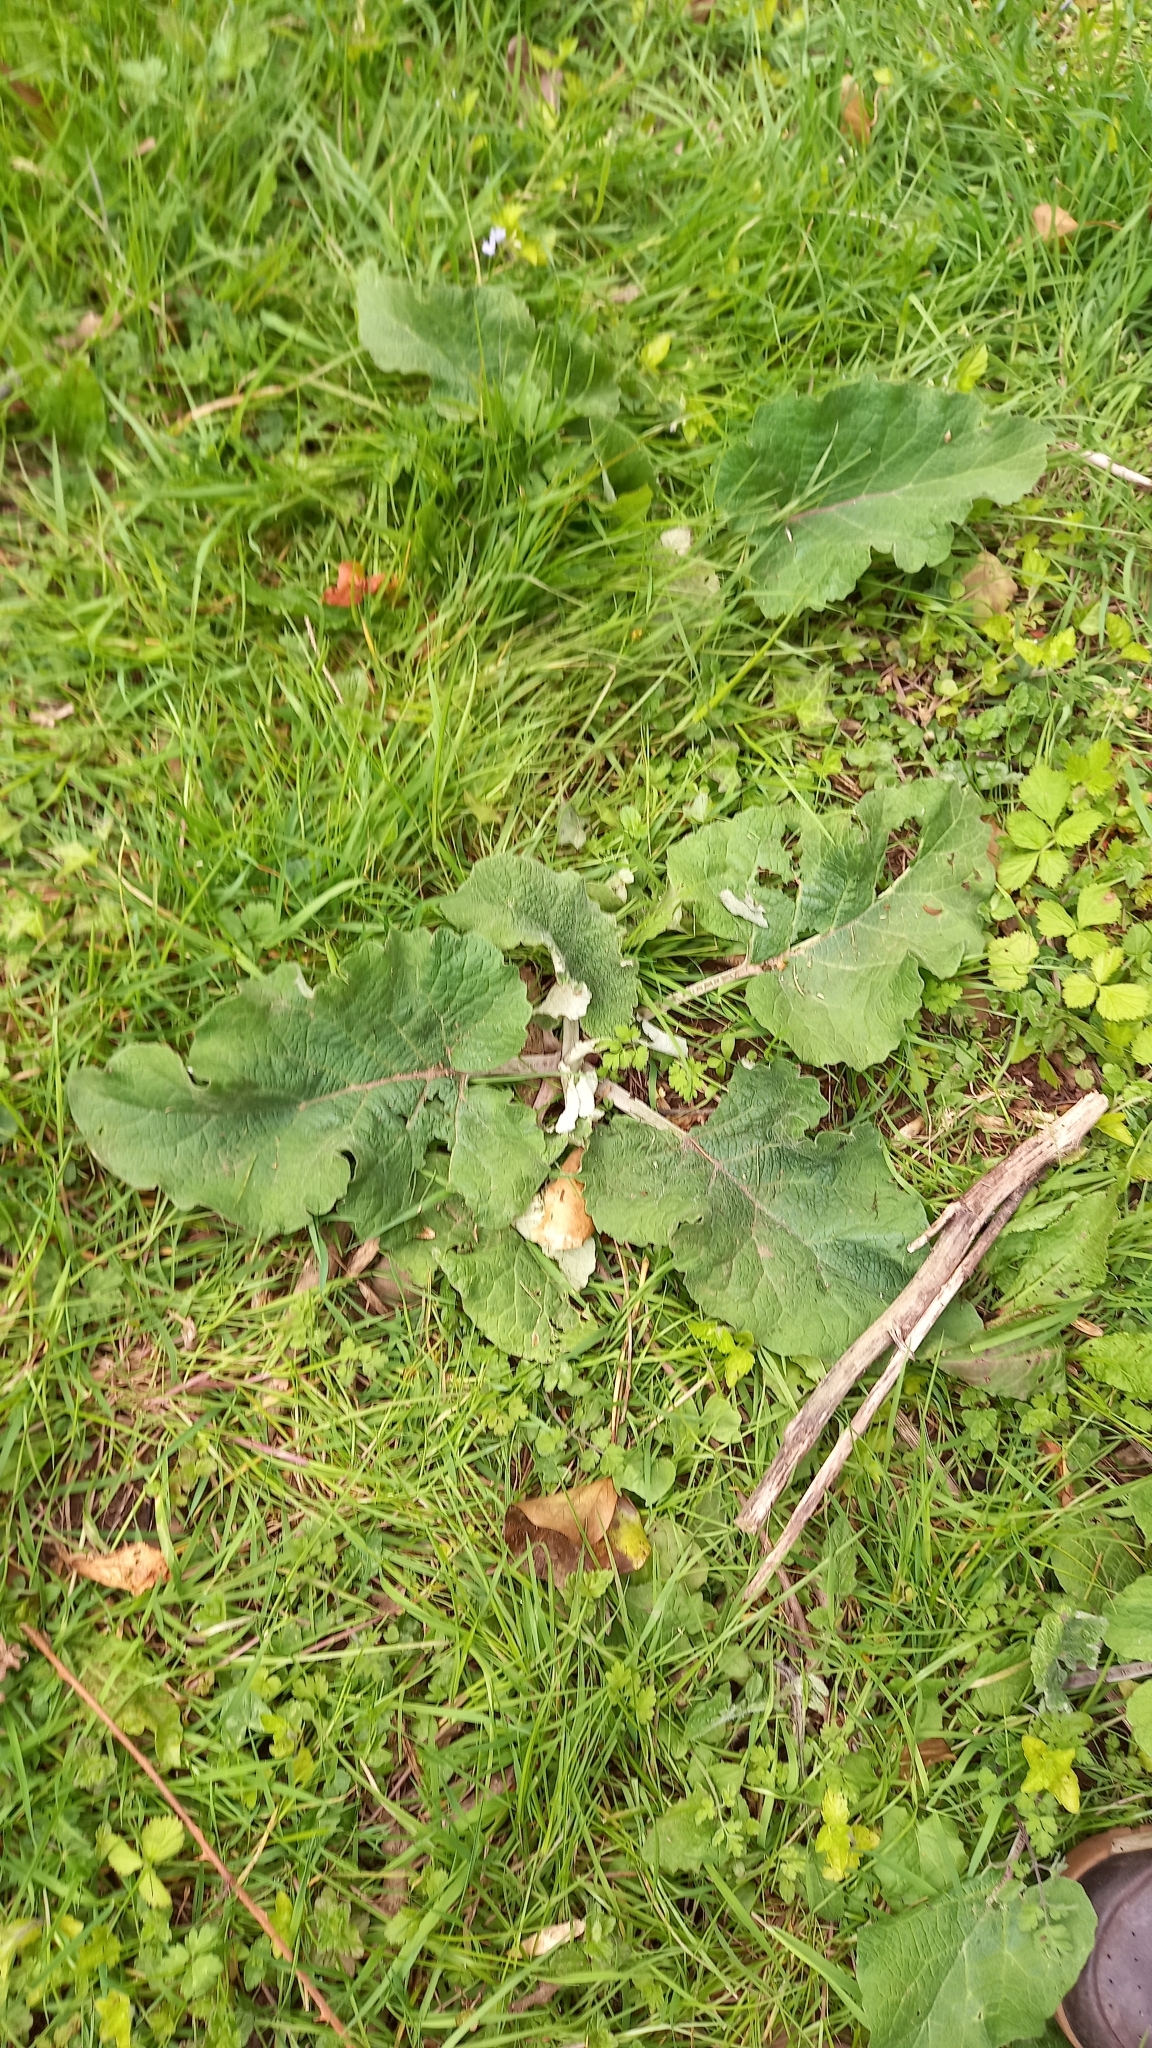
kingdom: Plantae
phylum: Tracheophyta
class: Magnoliopsida
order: Asterales
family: Asteraceae
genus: Arctium
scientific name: Arctium
